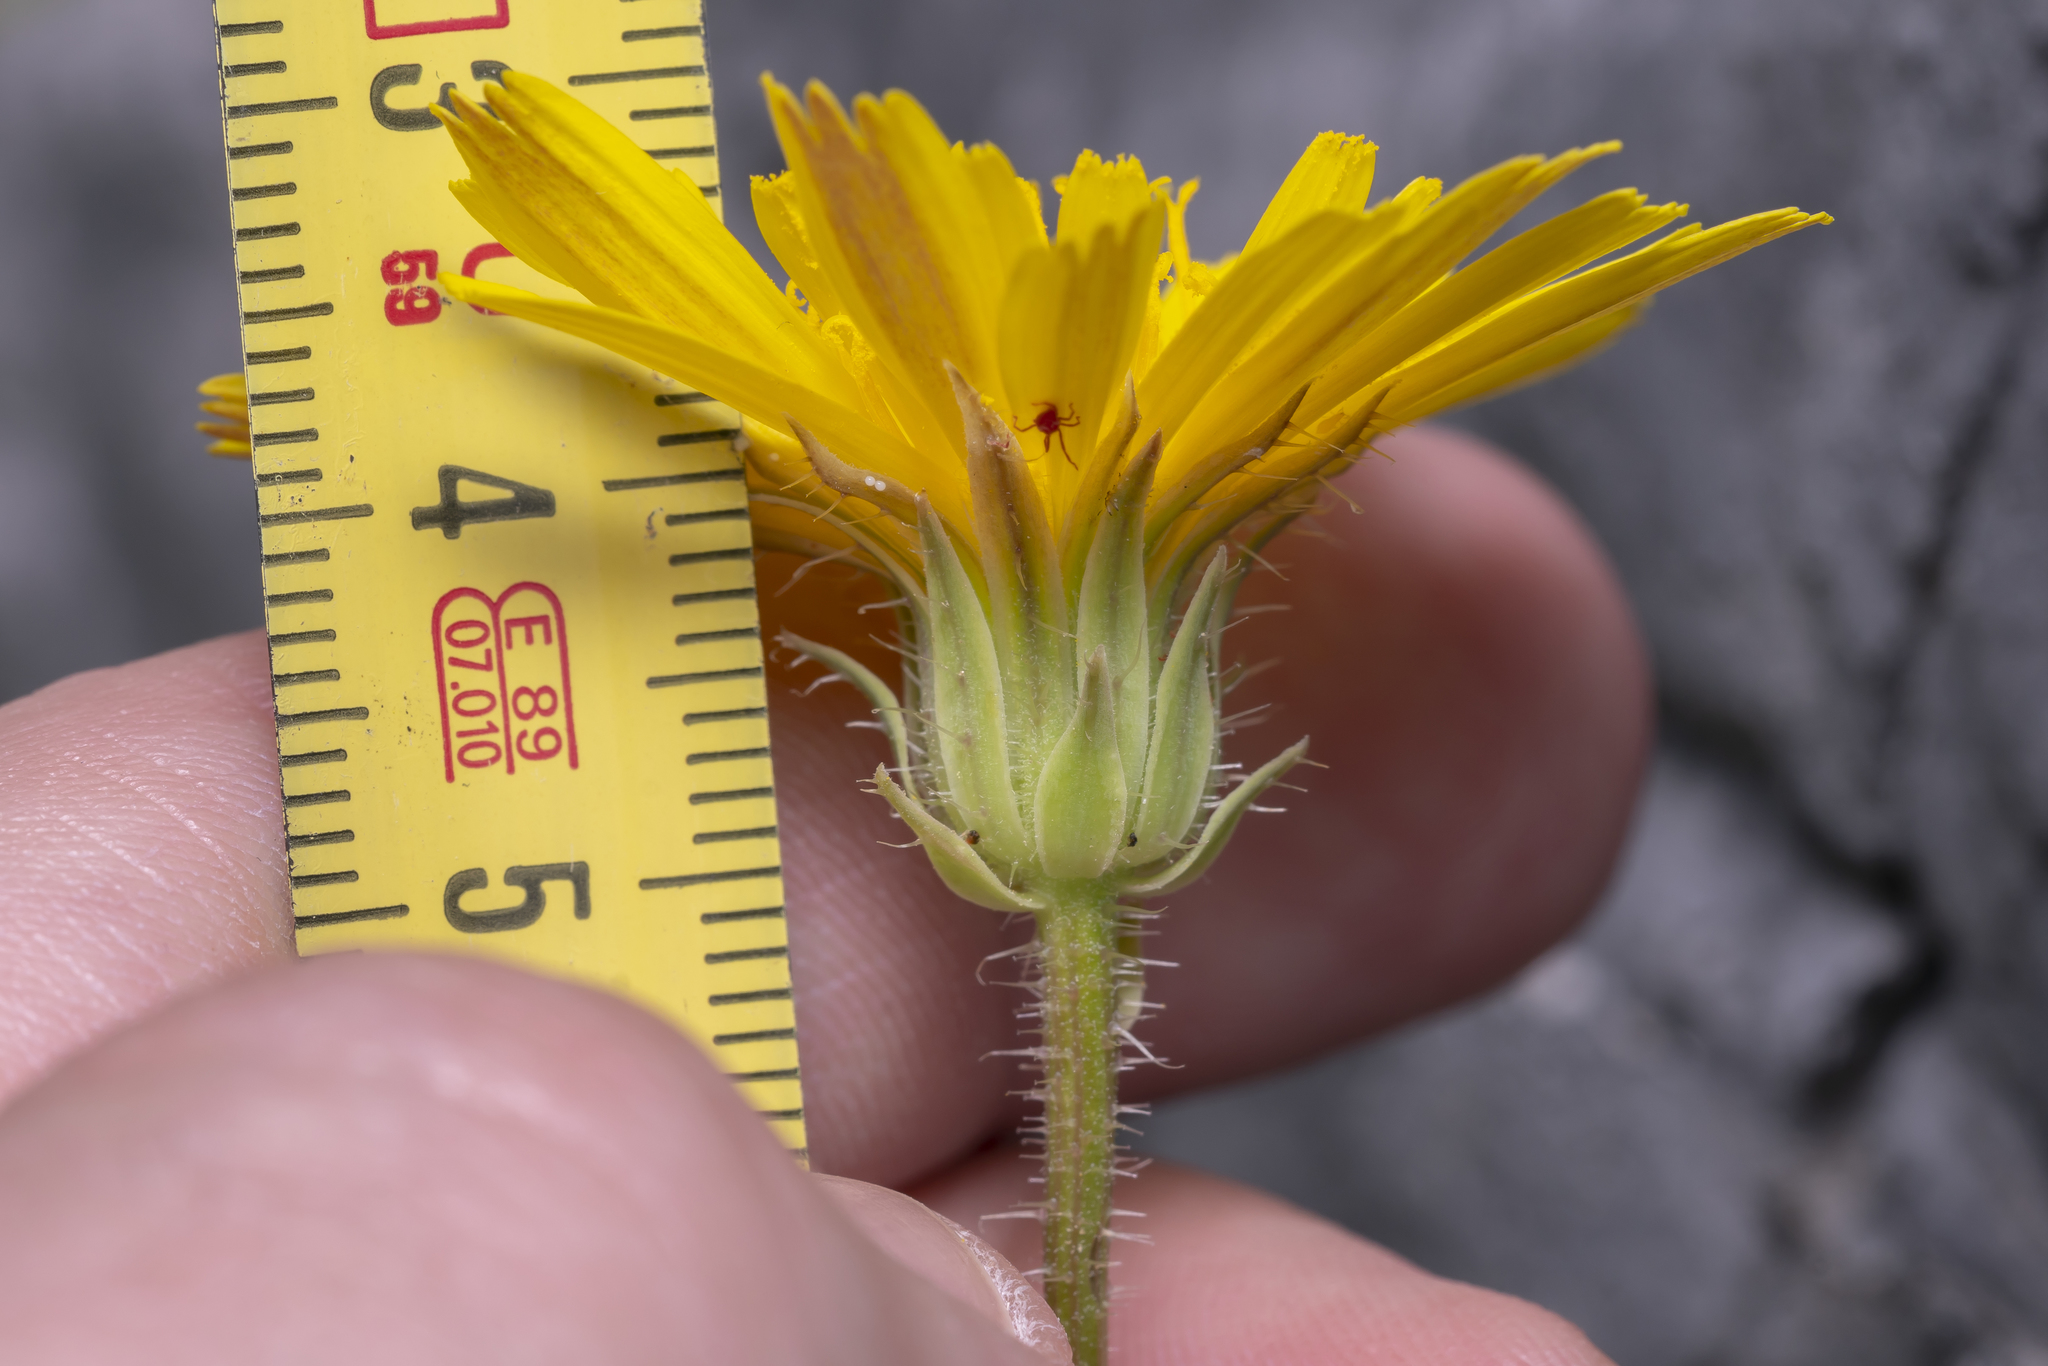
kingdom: Plantae
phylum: Tracheophyta
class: Magnoliopsida
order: Asterales
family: Asteraceae
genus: Picris
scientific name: Picris pauciflora
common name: Smallflower oxtongue
